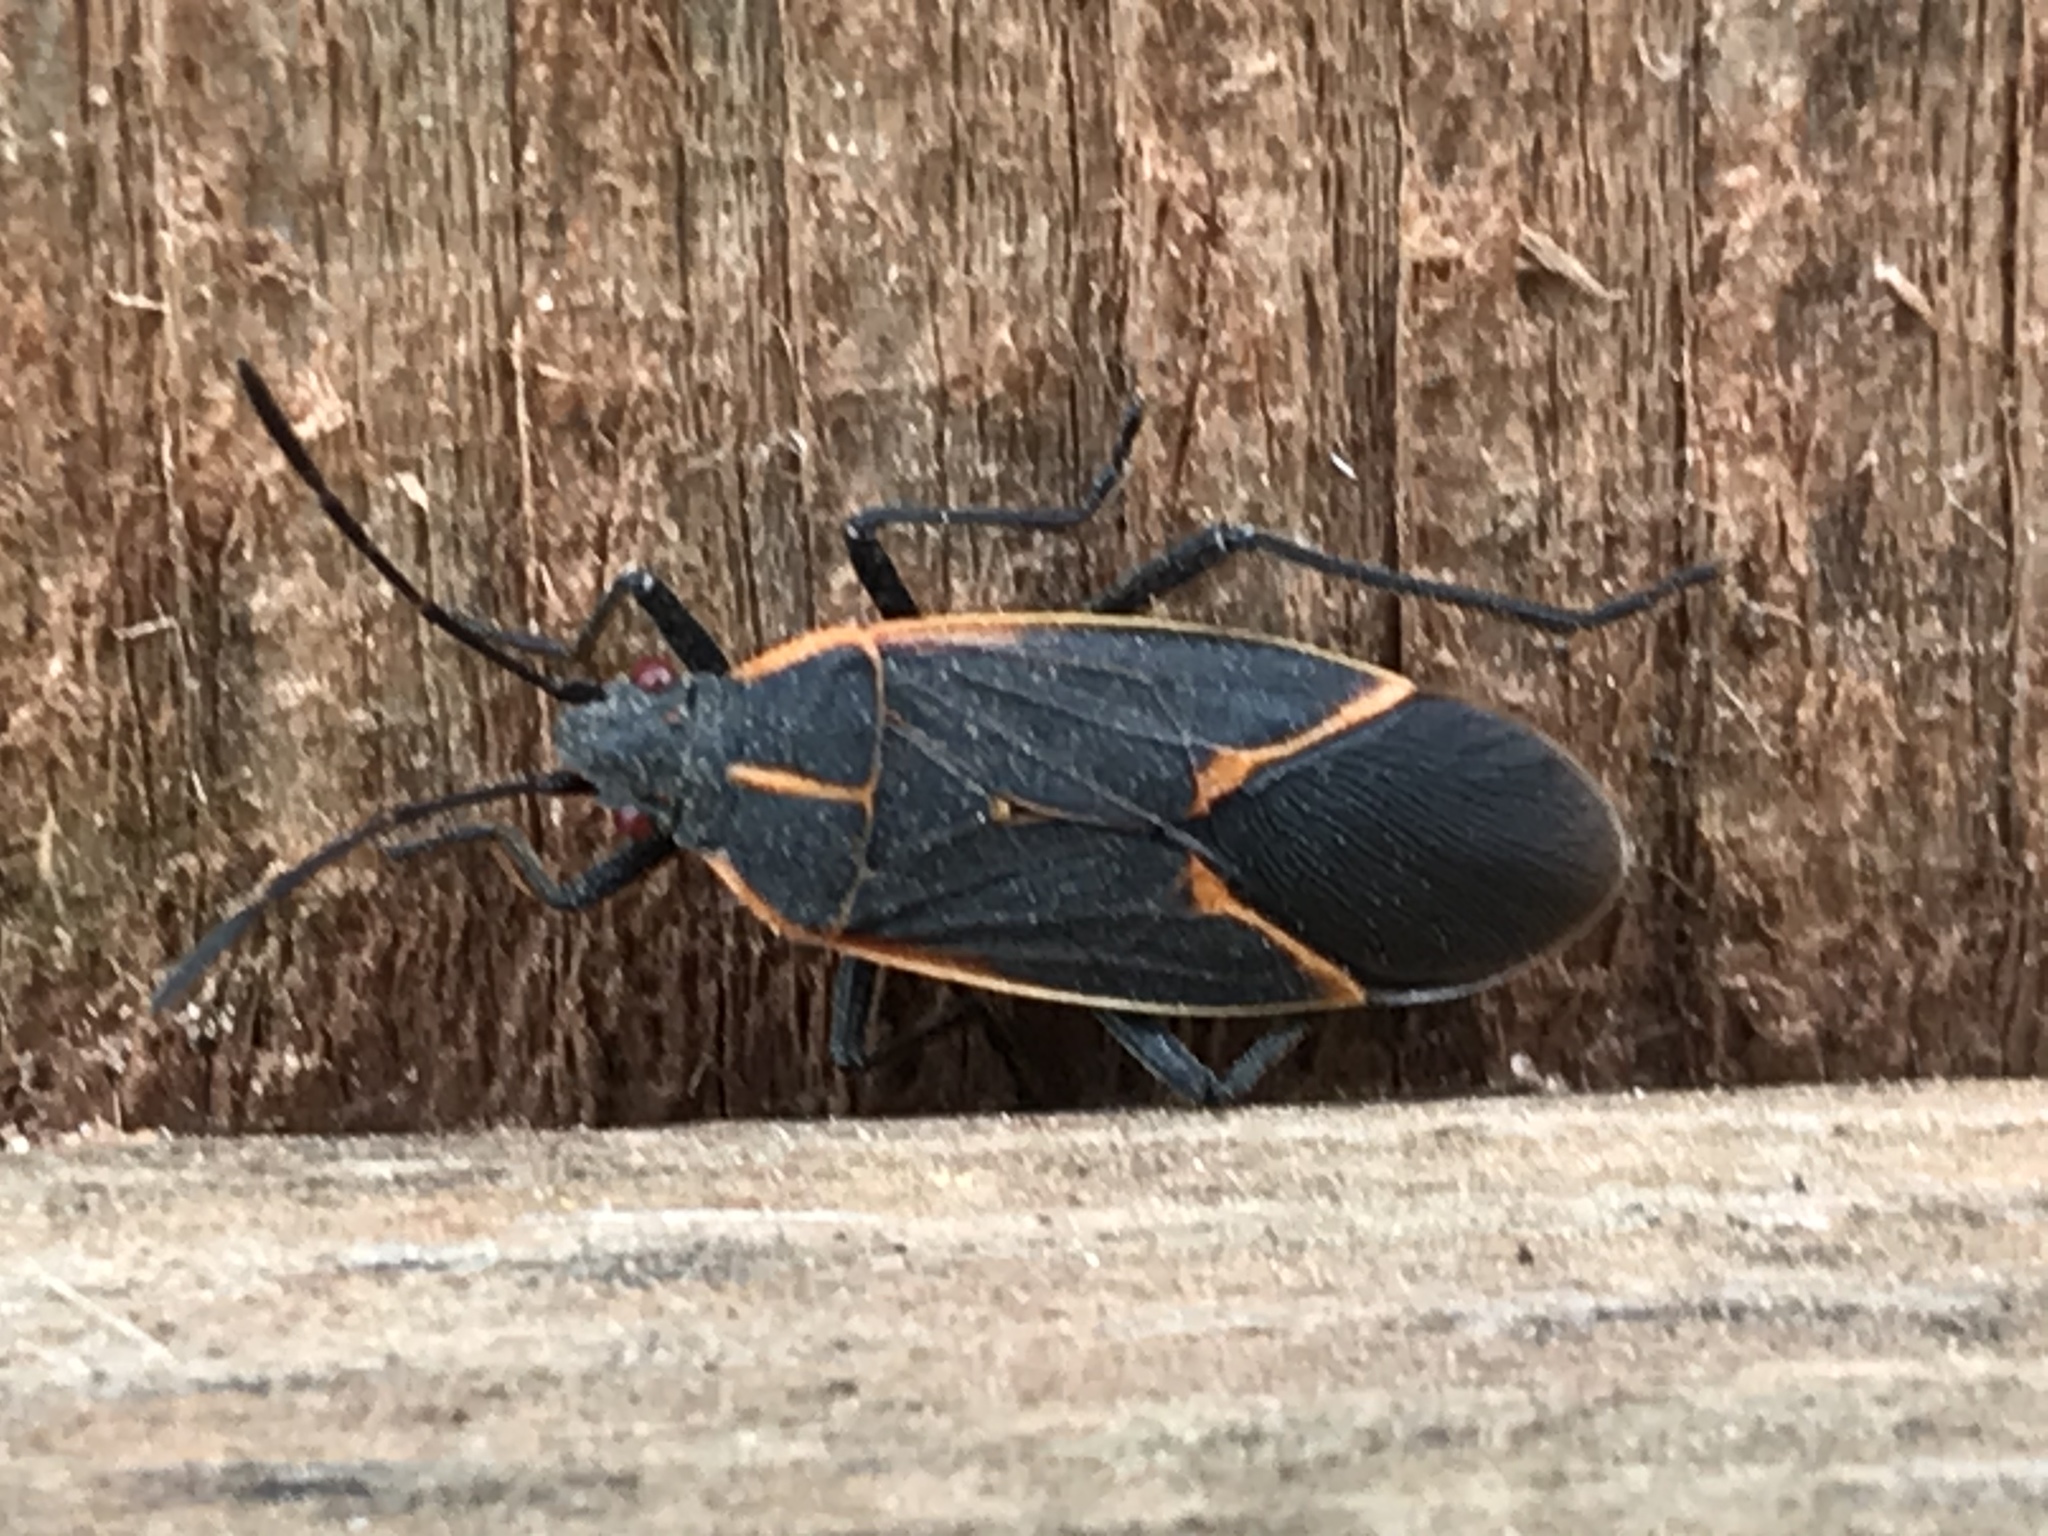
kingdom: Animalia
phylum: Arthropoda
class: Insecta
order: Hemiptera
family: Rhopalidae
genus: Boisea
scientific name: Boisea trivittata
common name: Boxelder bug
